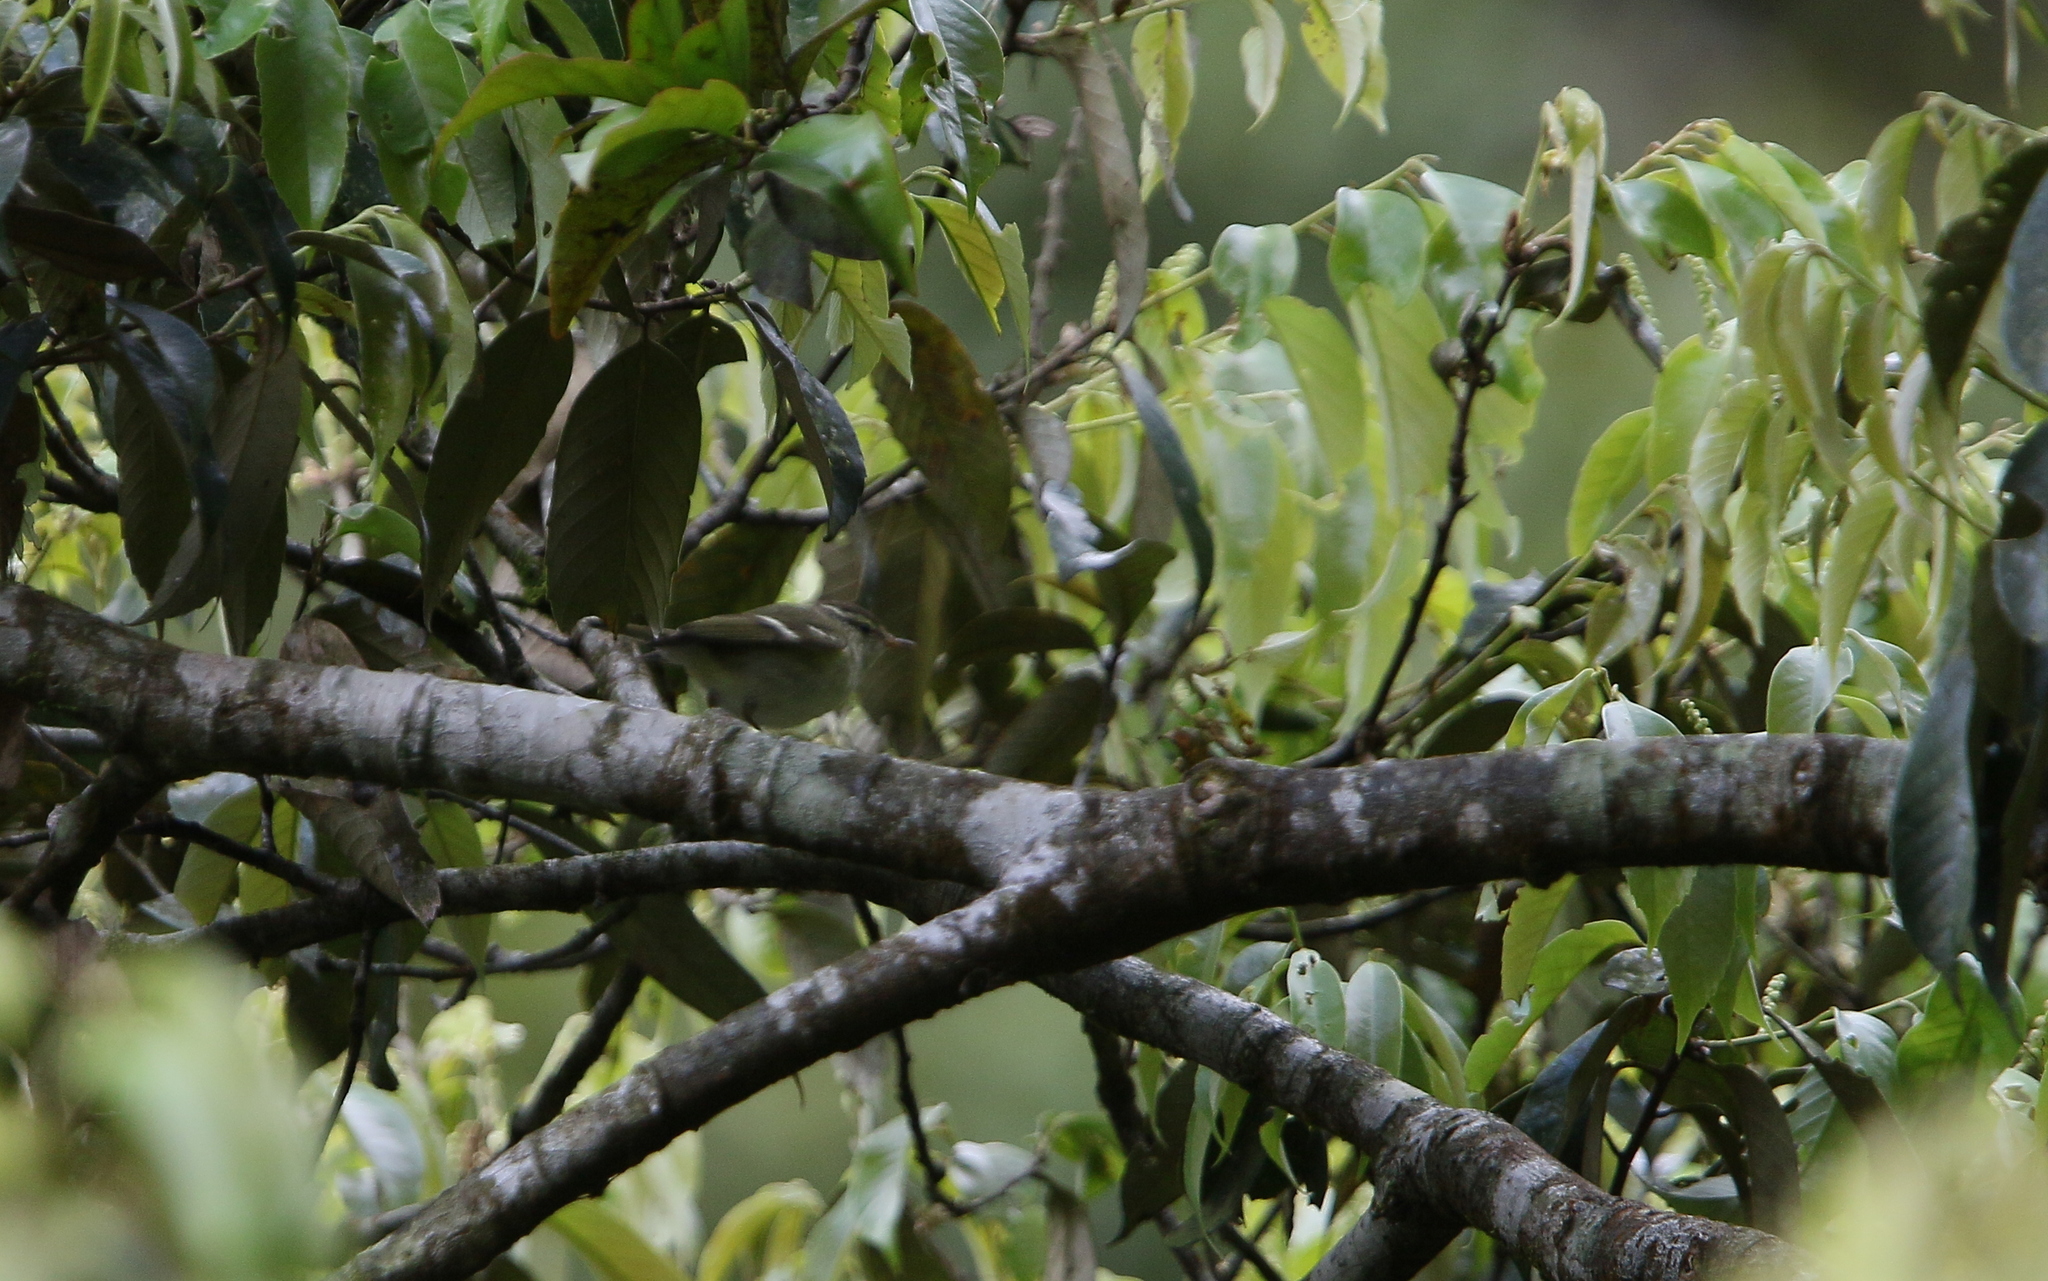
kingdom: Animalia
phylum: Chordata
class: Aves
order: Passeriformes
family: Phylloscopidae
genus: Phylloscopus
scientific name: Phylloscopus inornatus
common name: Yellow-browed warbler
